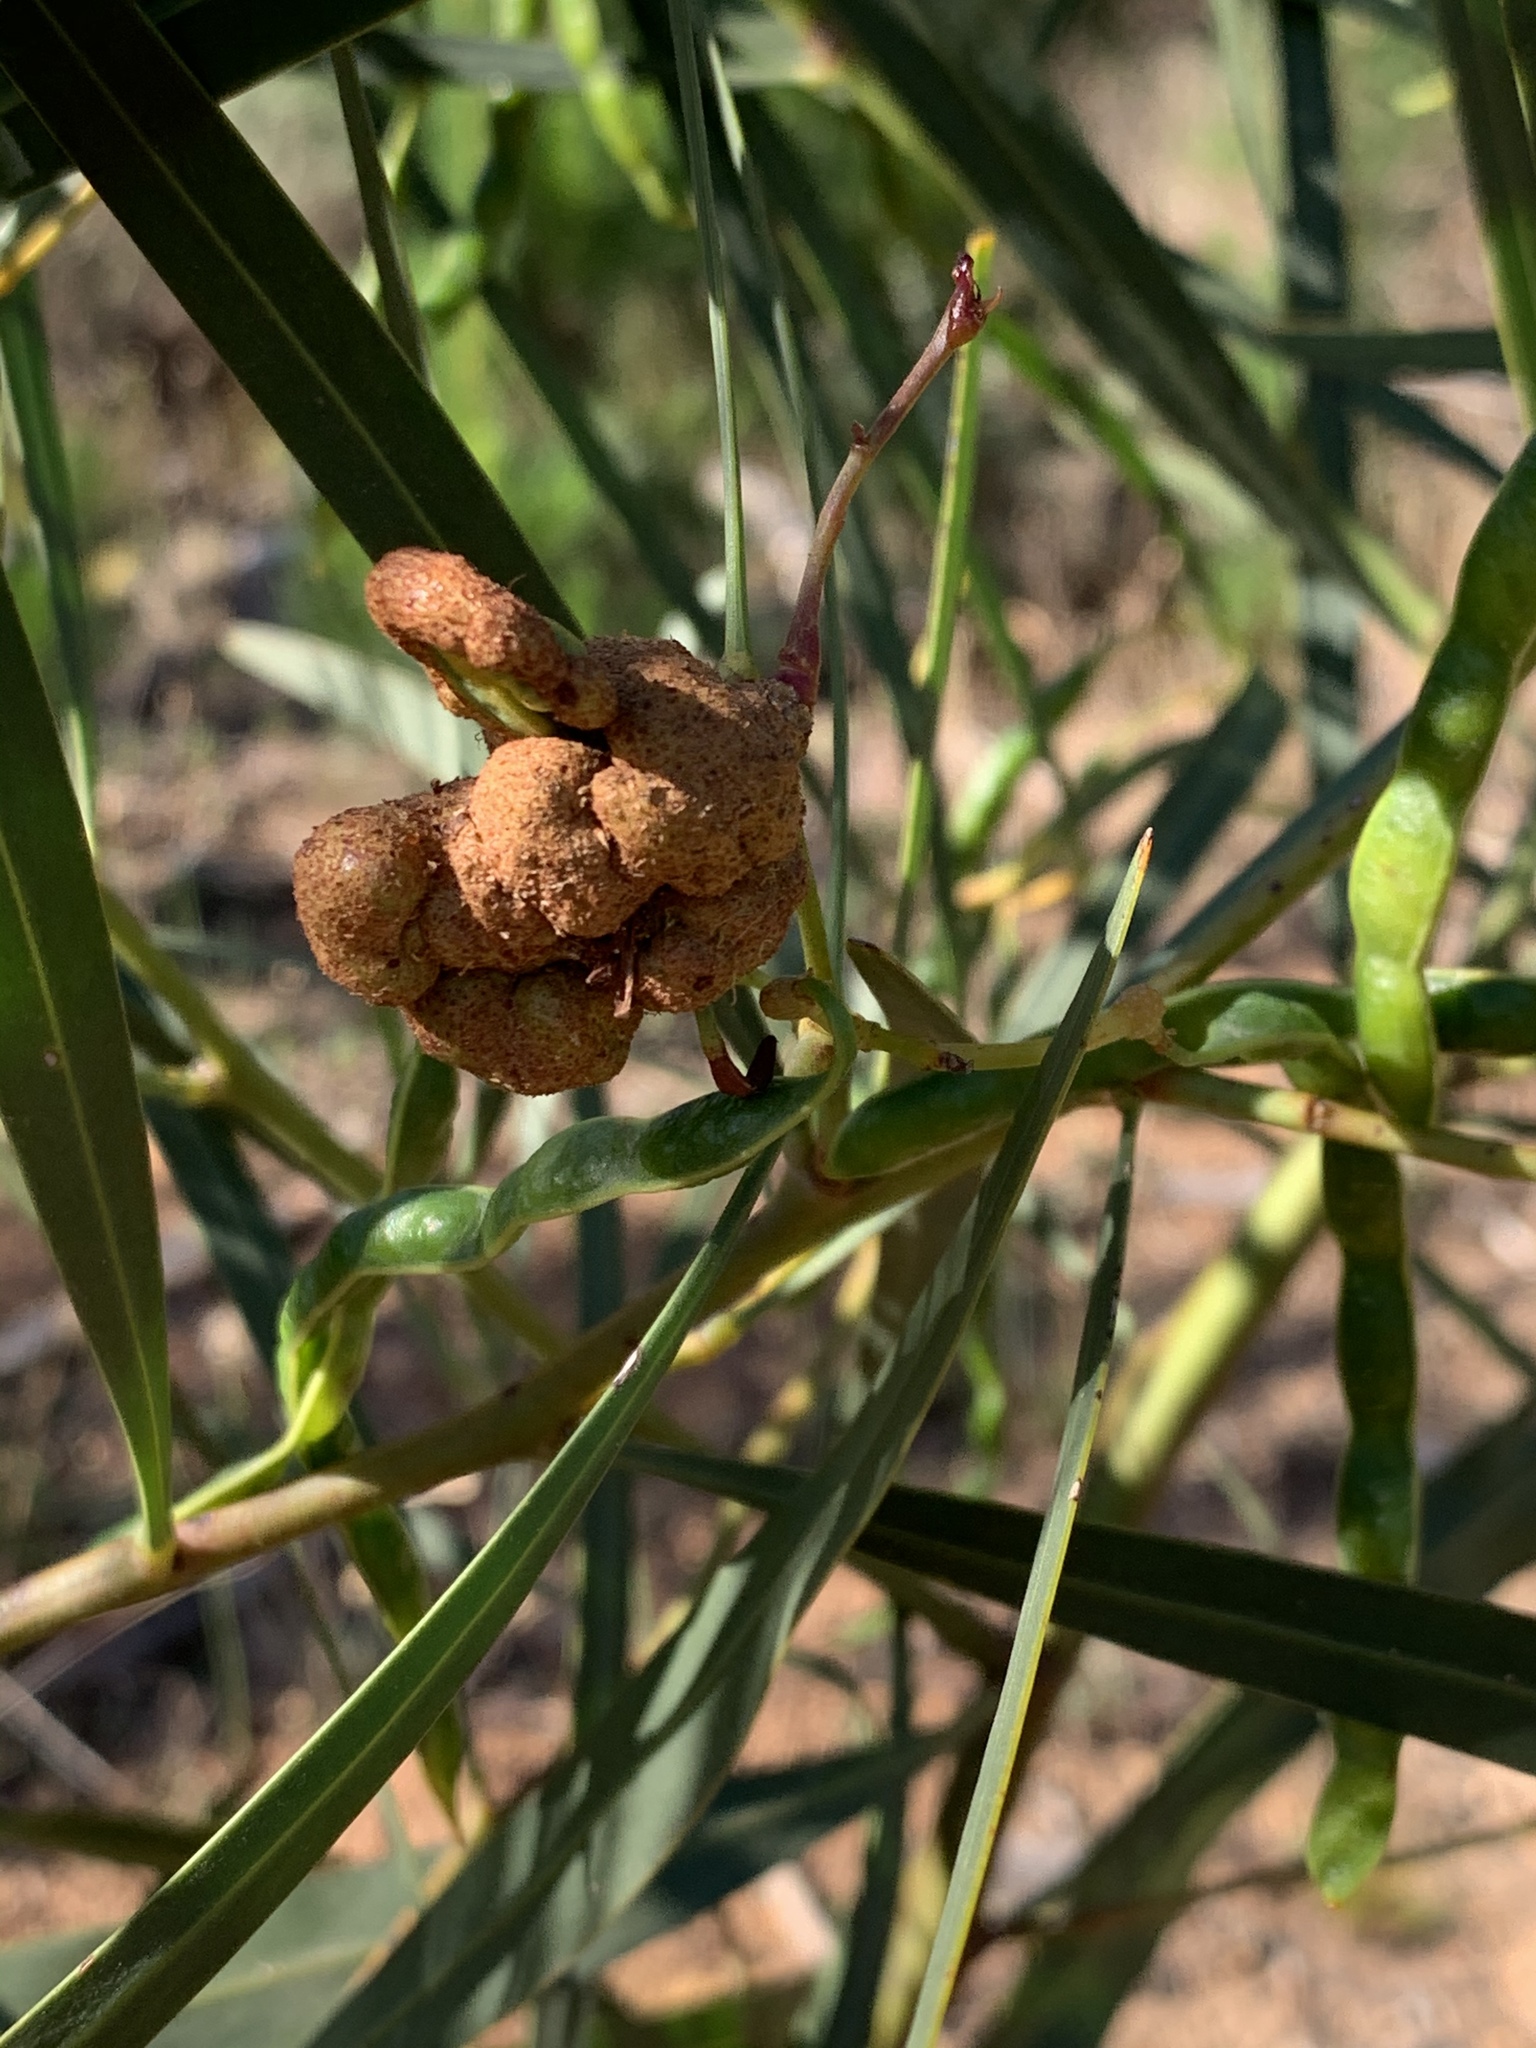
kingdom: Fungi
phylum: Basidiomycota
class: Pucciniomycetes
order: Pucciniales
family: Uromycladiaceae
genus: Uromycladium
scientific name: Uromycladium morrisii
